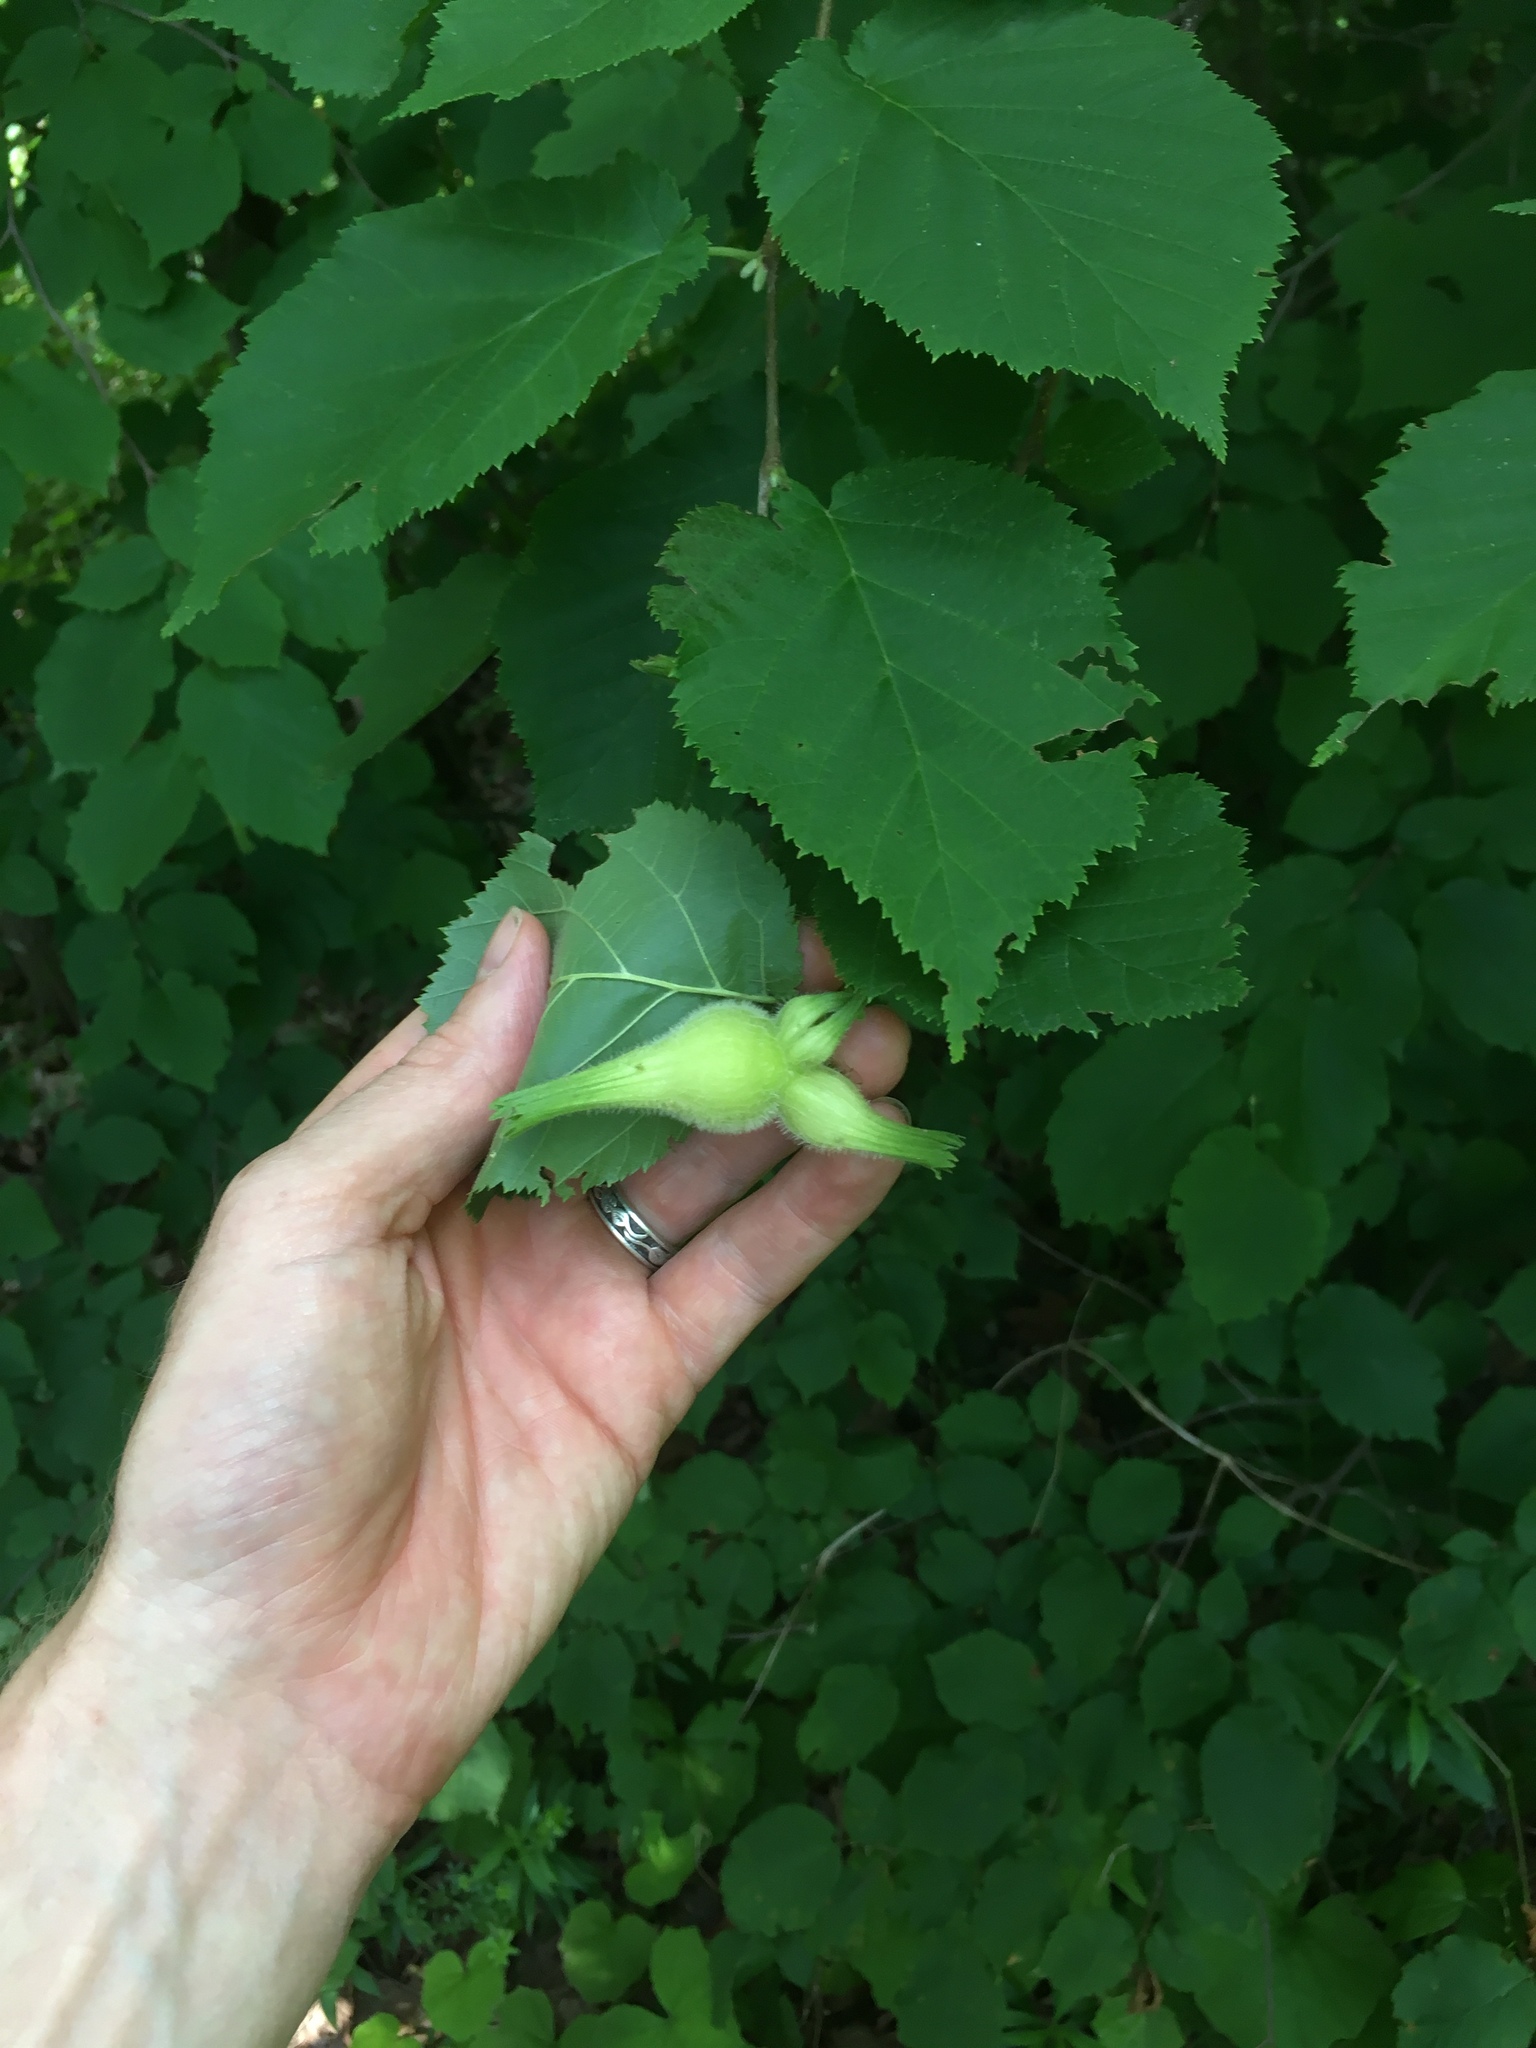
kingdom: Plantae
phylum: Tracheophyta
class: Magnoliopsida
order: Fagales
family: Betulaceae
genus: Corylus
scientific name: Corylus cornuta
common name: Beaked hazel
